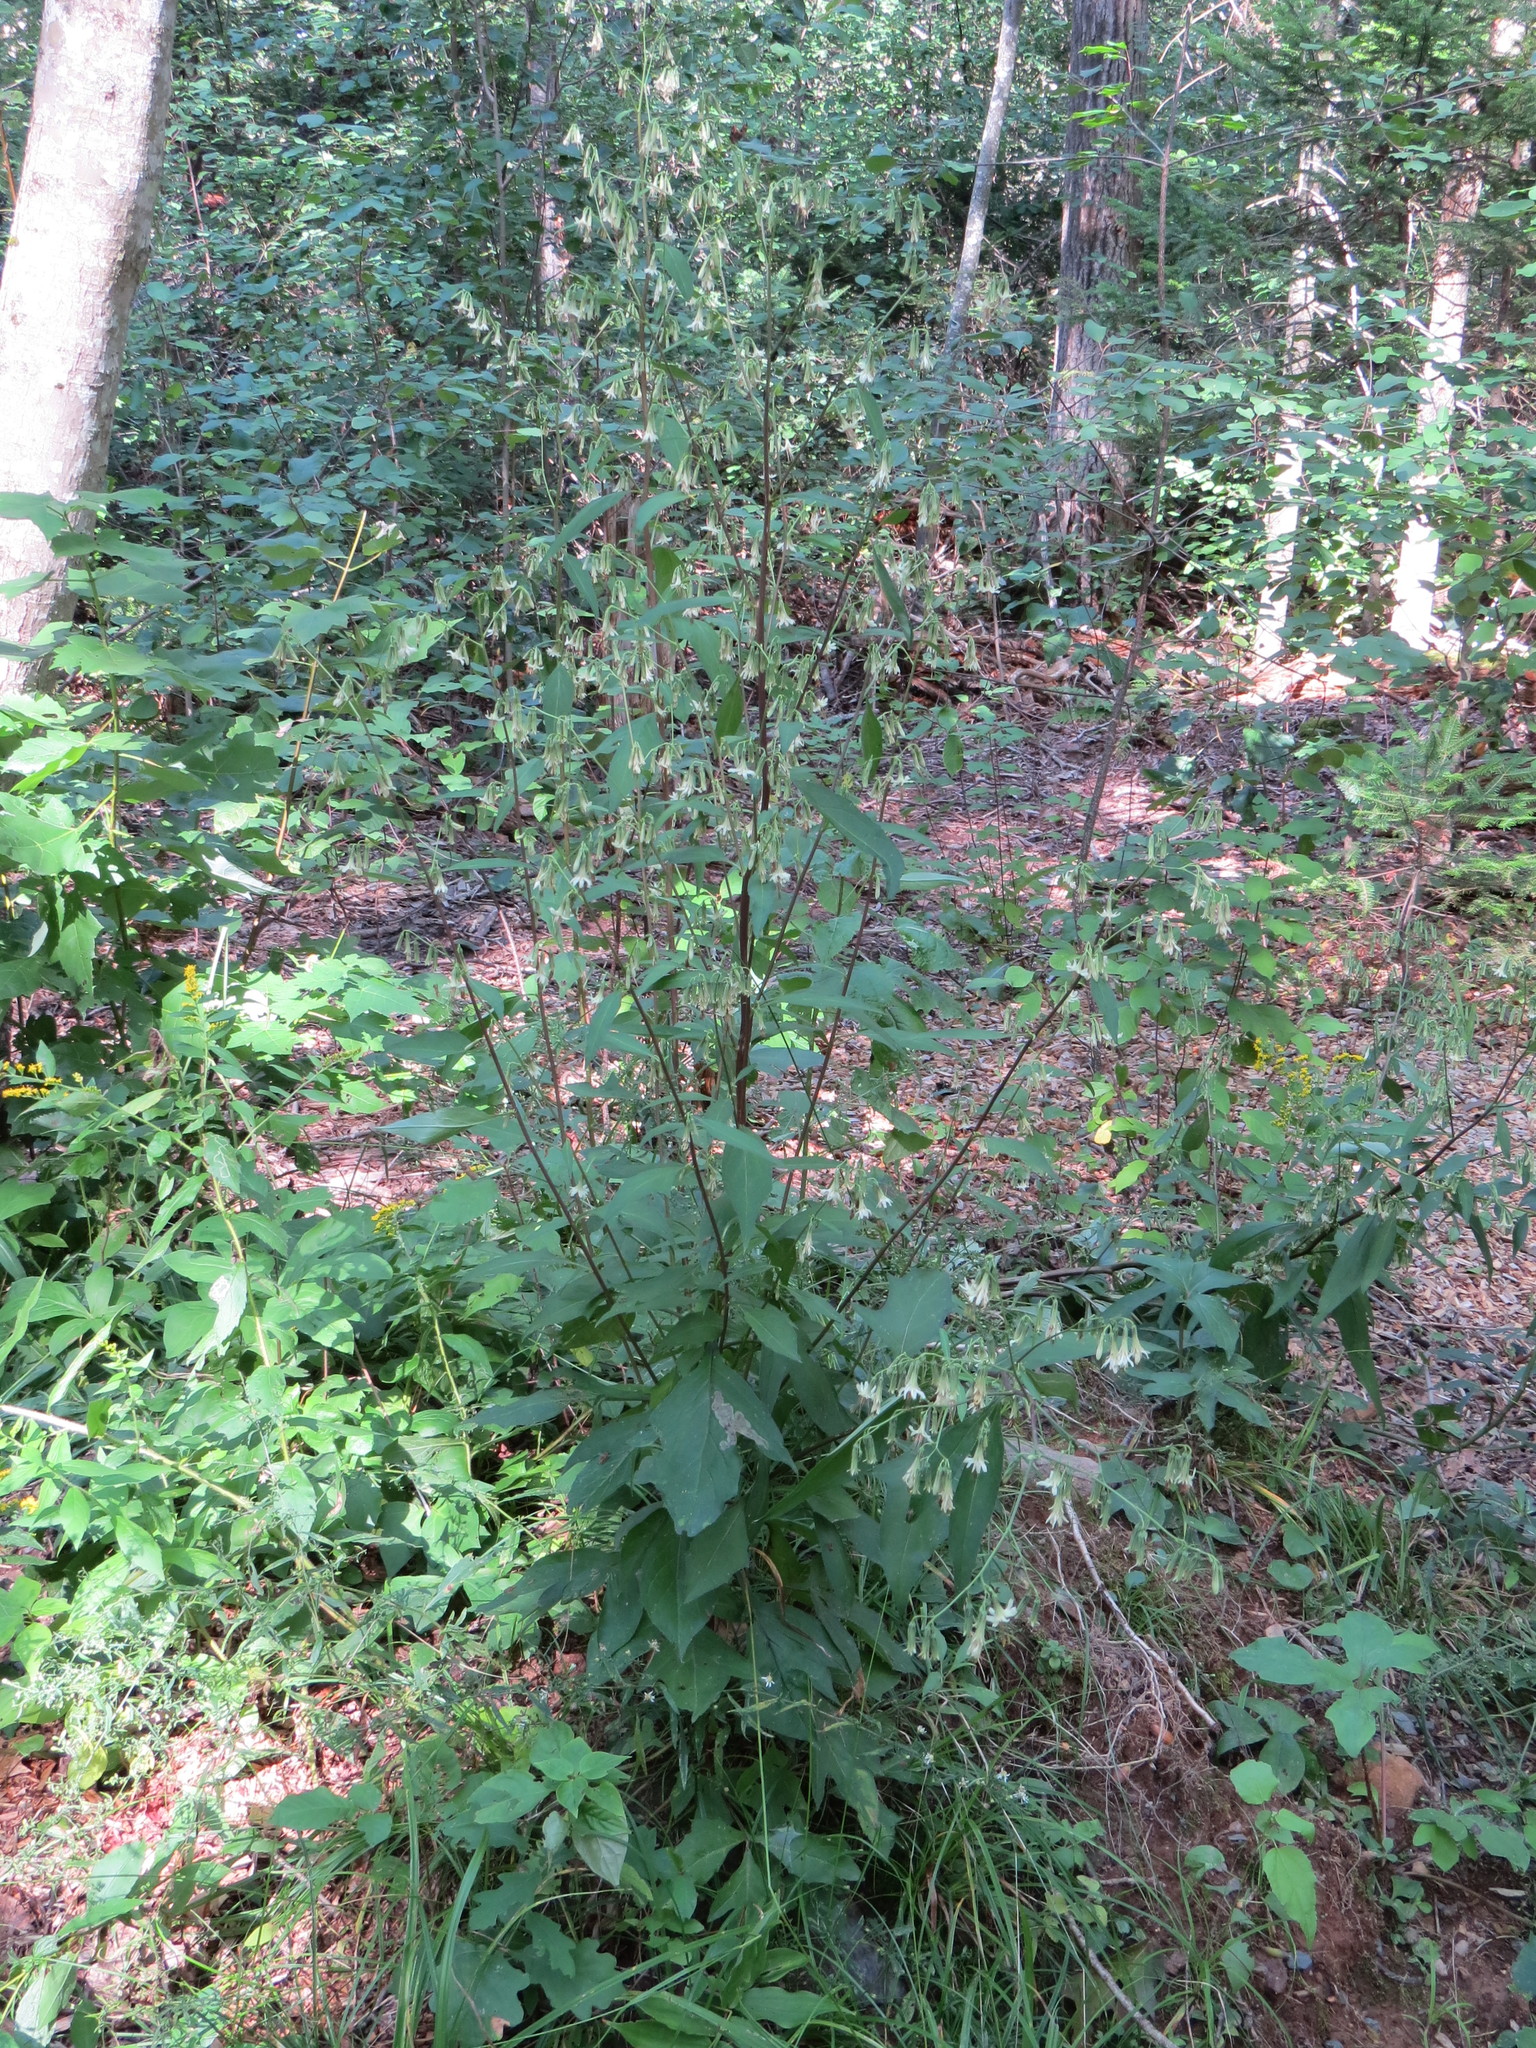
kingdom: Plantae
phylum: Tracheophyta
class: Magnoliopsida
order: Asterales
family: Asteraceae
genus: Nabalus
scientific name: Nabalus trifoliolatus
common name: Gall-of-the-earth
